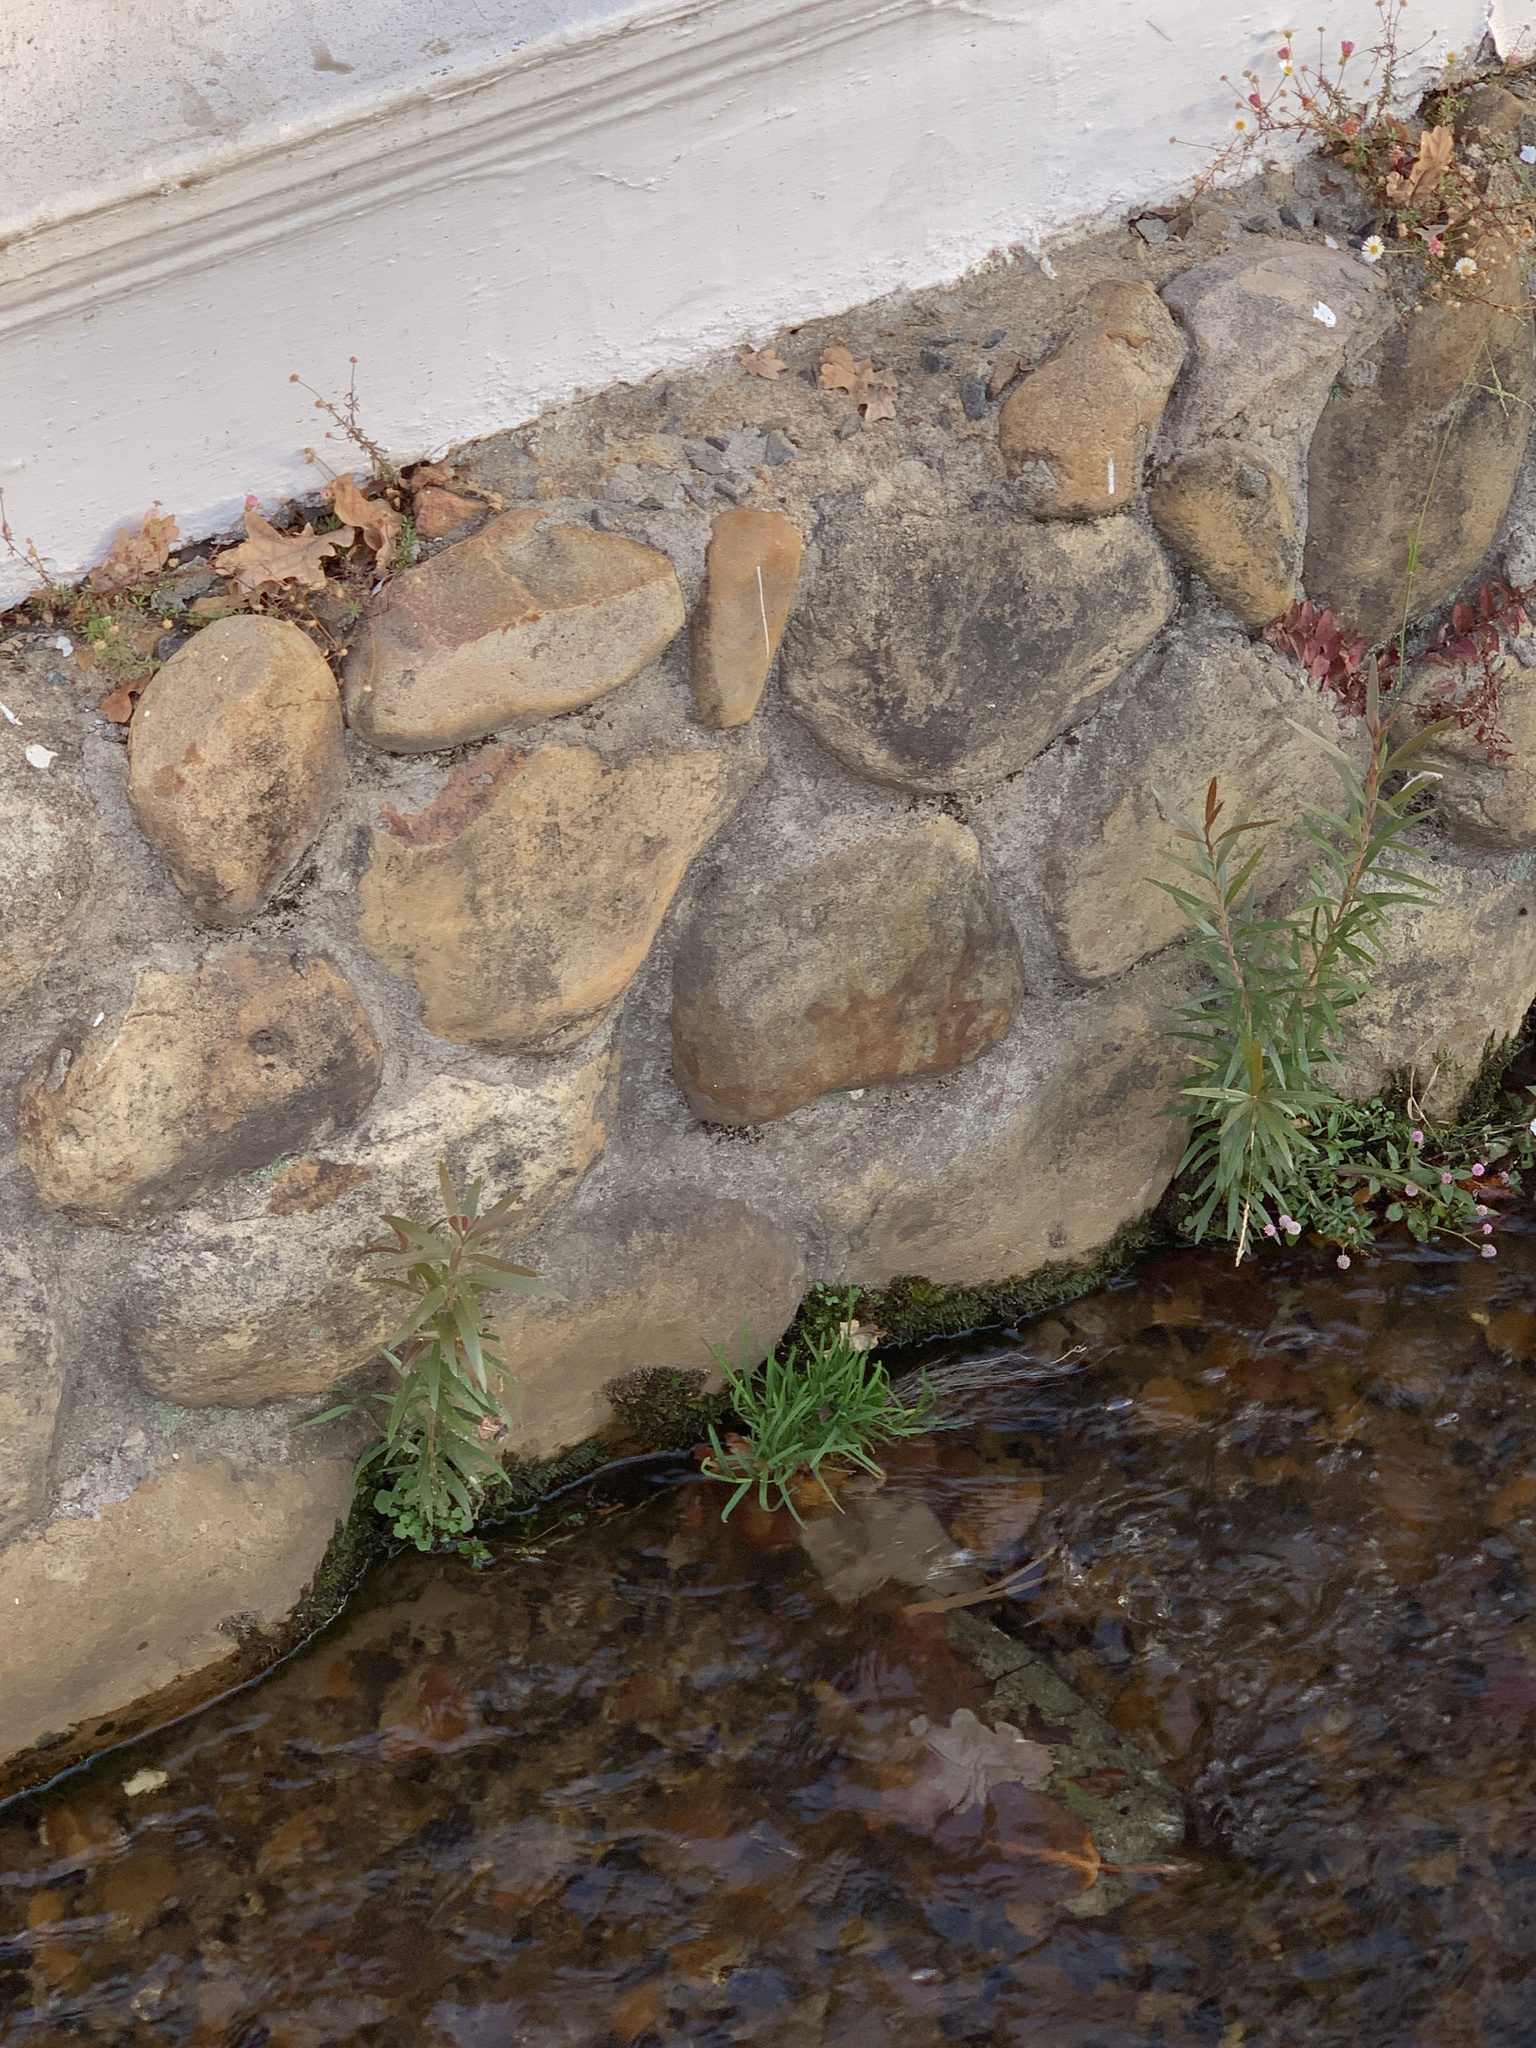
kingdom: Plantae
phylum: Tracheophyta
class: Magnoliopsida
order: Myrtales
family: Myrtaceae
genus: Callistemon
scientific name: Callistemon viminalis
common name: Drooping bottlebrush
